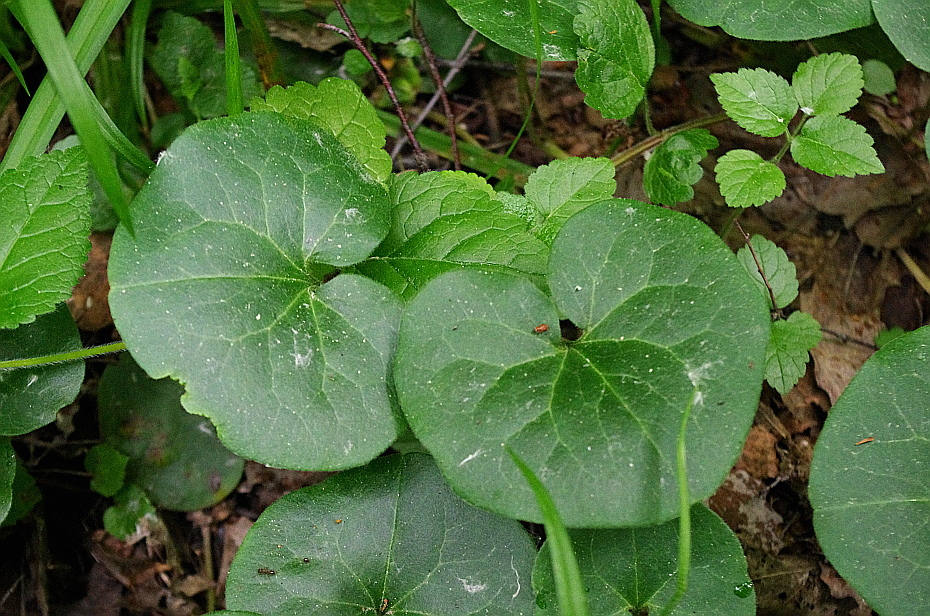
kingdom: Plantae
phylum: Tracheophyta
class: Magnoliopsida
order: Piperales
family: Aristolochiaceae
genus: Asarum
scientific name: Asarum europaeum
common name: Asarabacca
